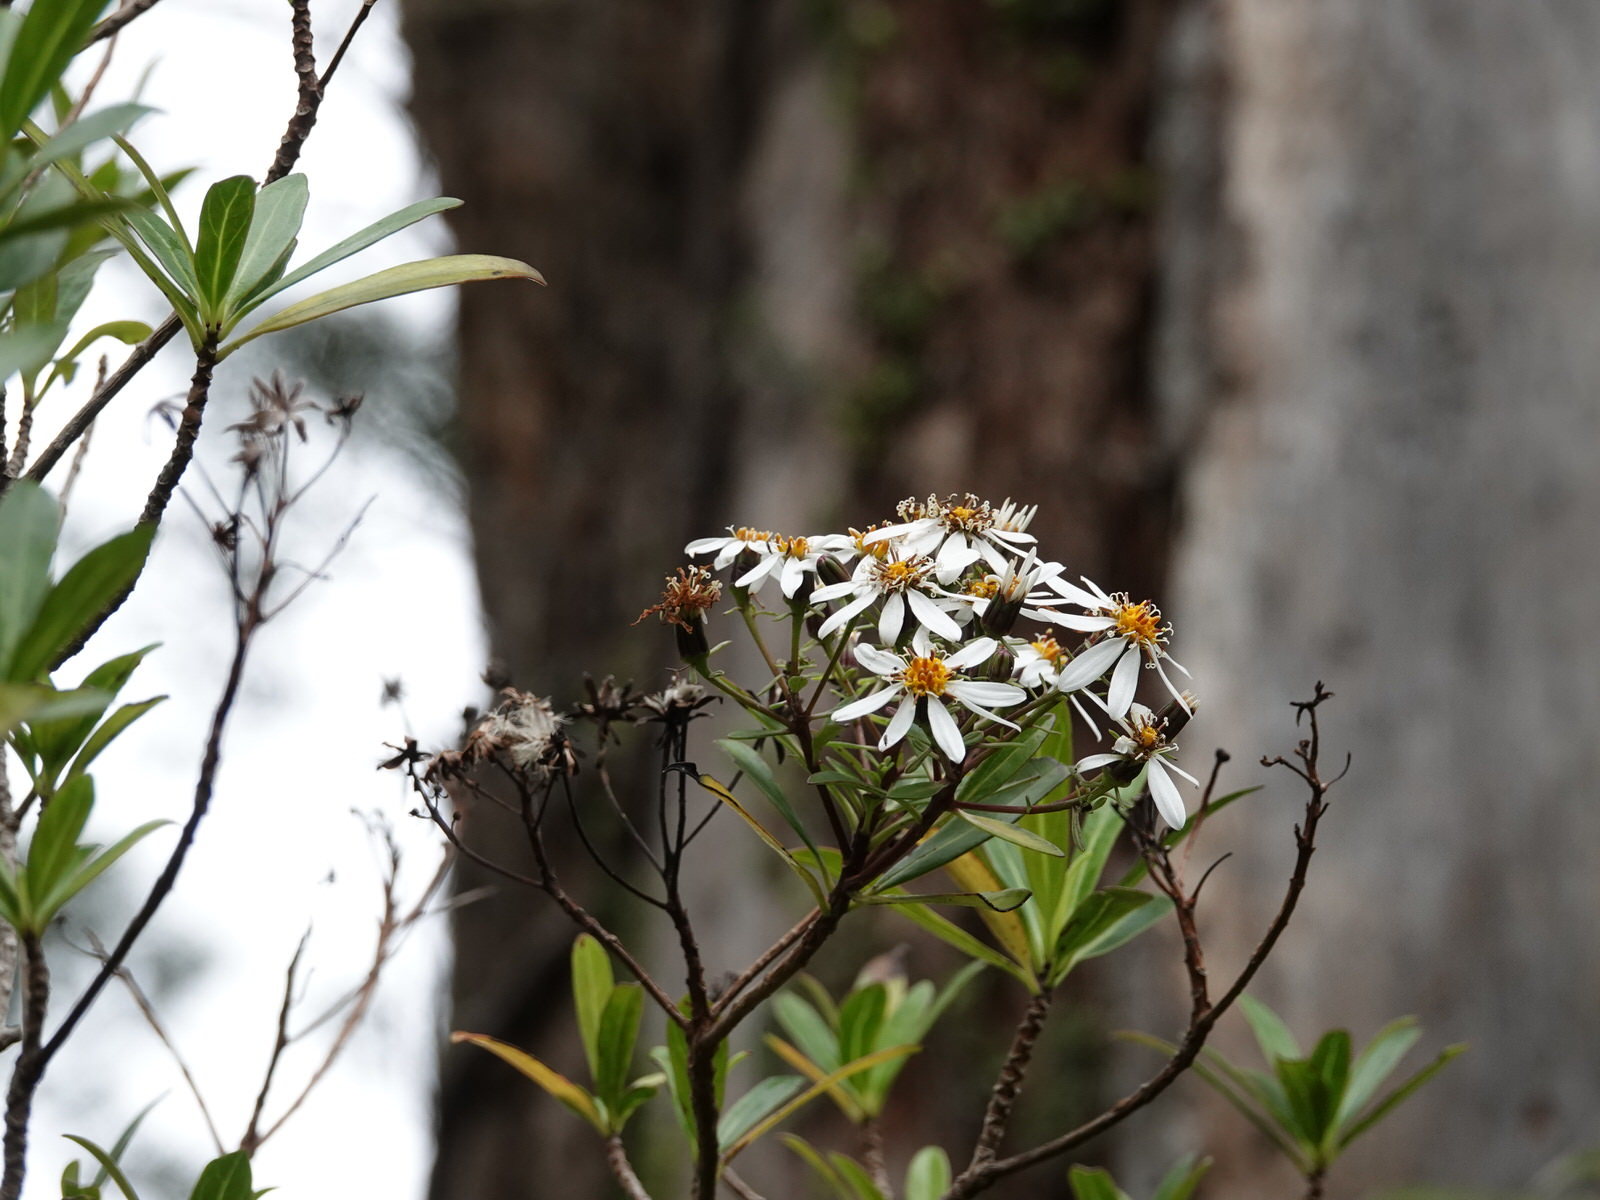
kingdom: Plantae
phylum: Tracheophyta
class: Magnoliopsida
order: Asterales
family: Asteraceae
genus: Brachyglottis
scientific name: Brachyglottis kirkii
